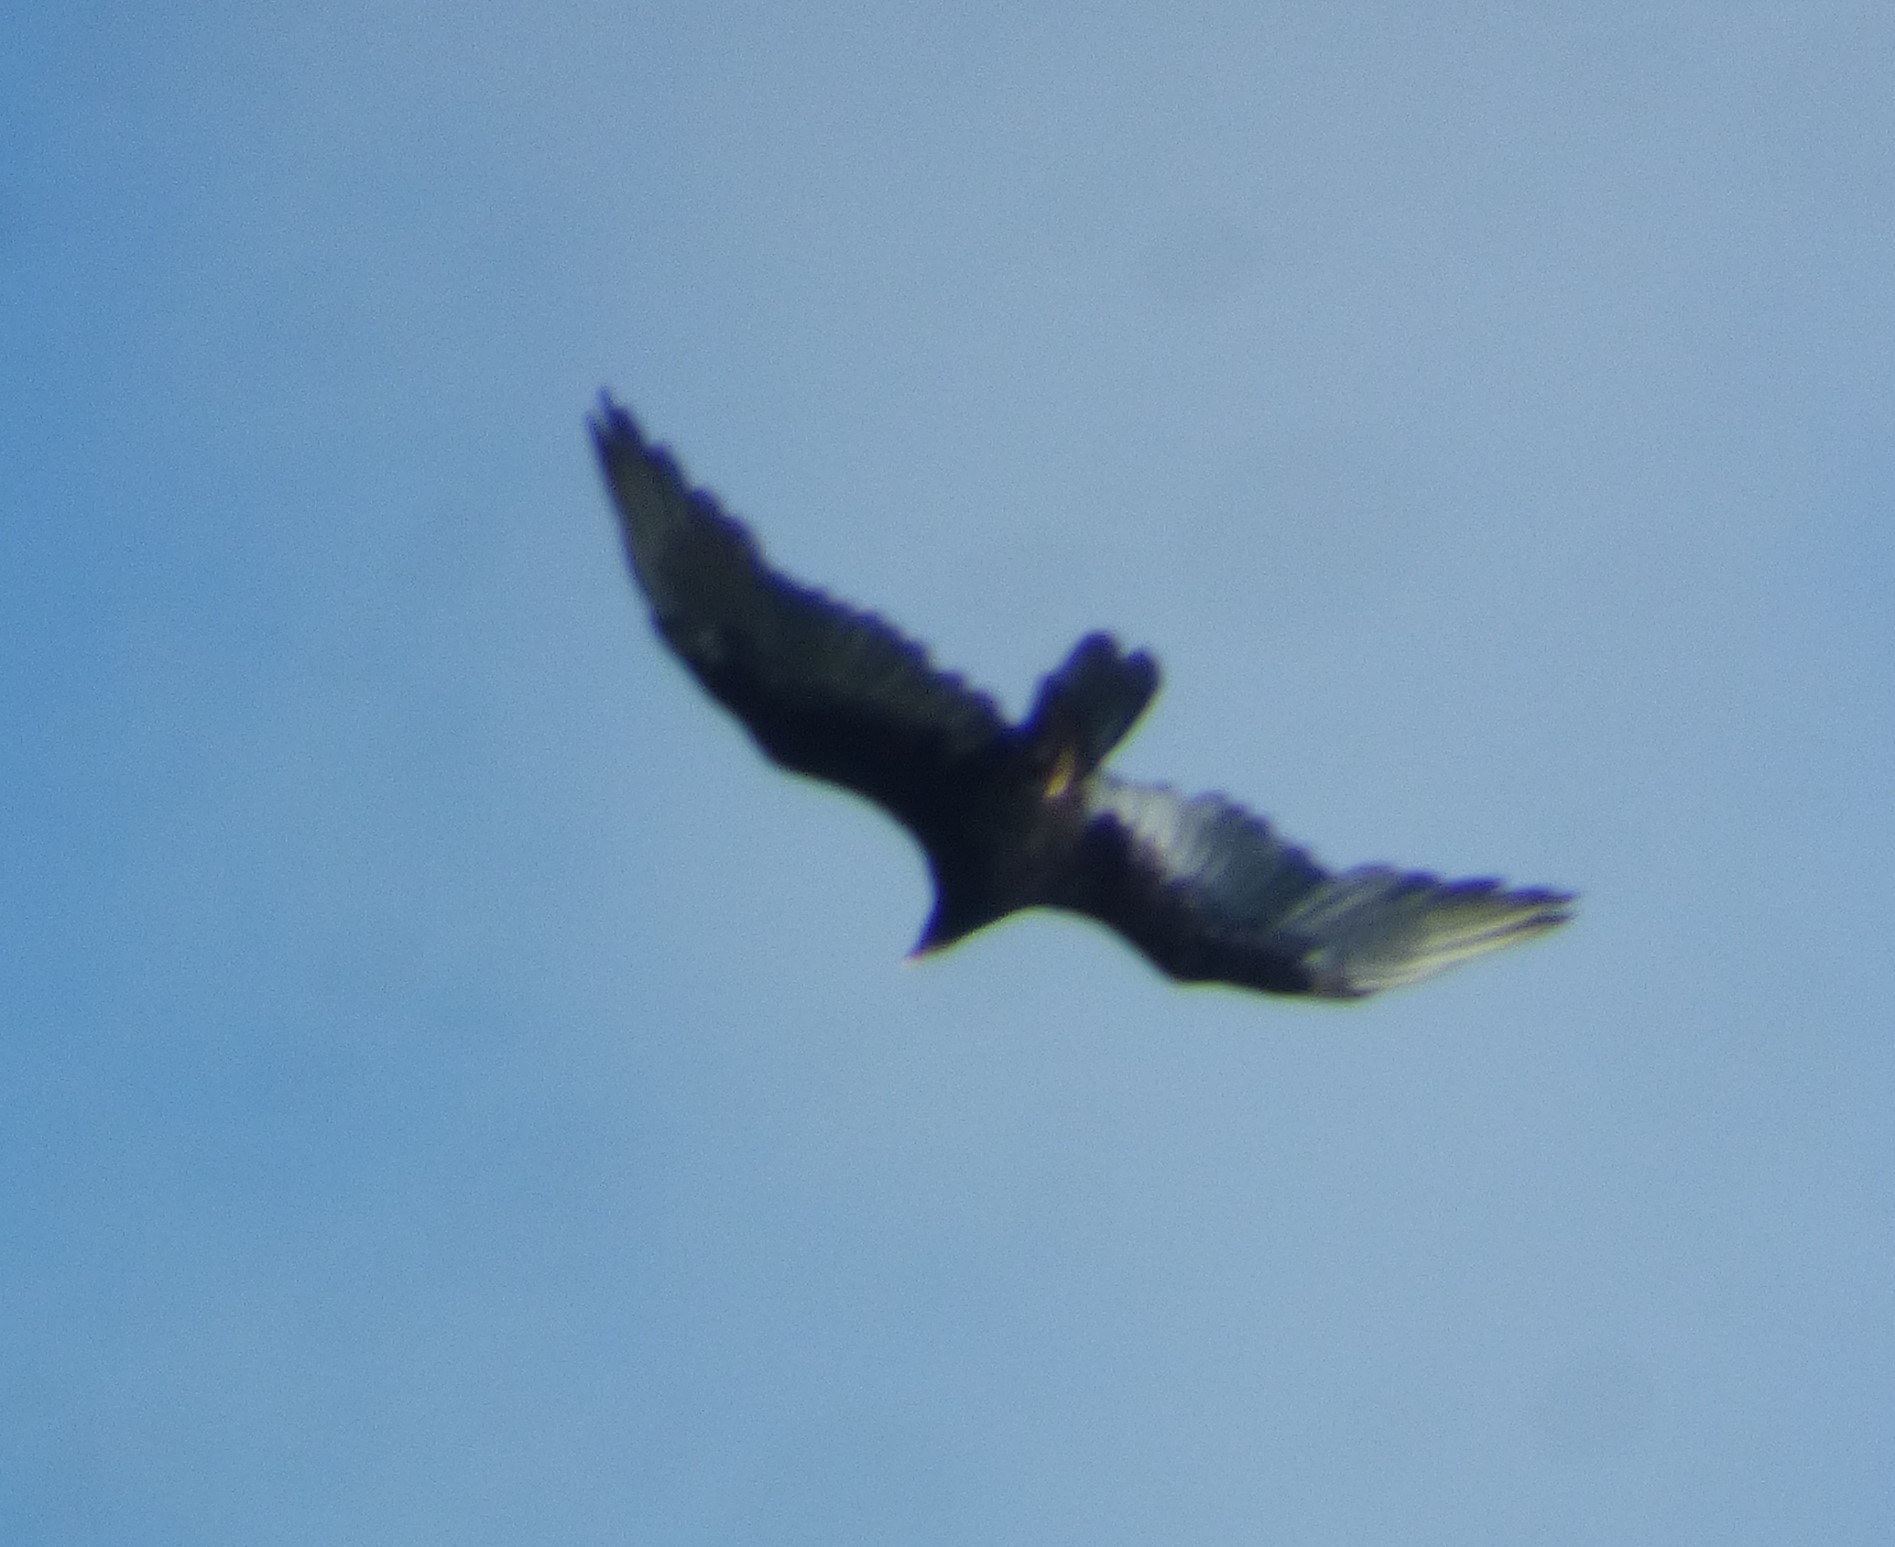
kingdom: Animalia
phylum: Chordata
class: Aves
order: Accipitriformes
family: Cathartidae
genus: Cathartes
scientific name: Cathartes aura
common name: Turkey vulture
